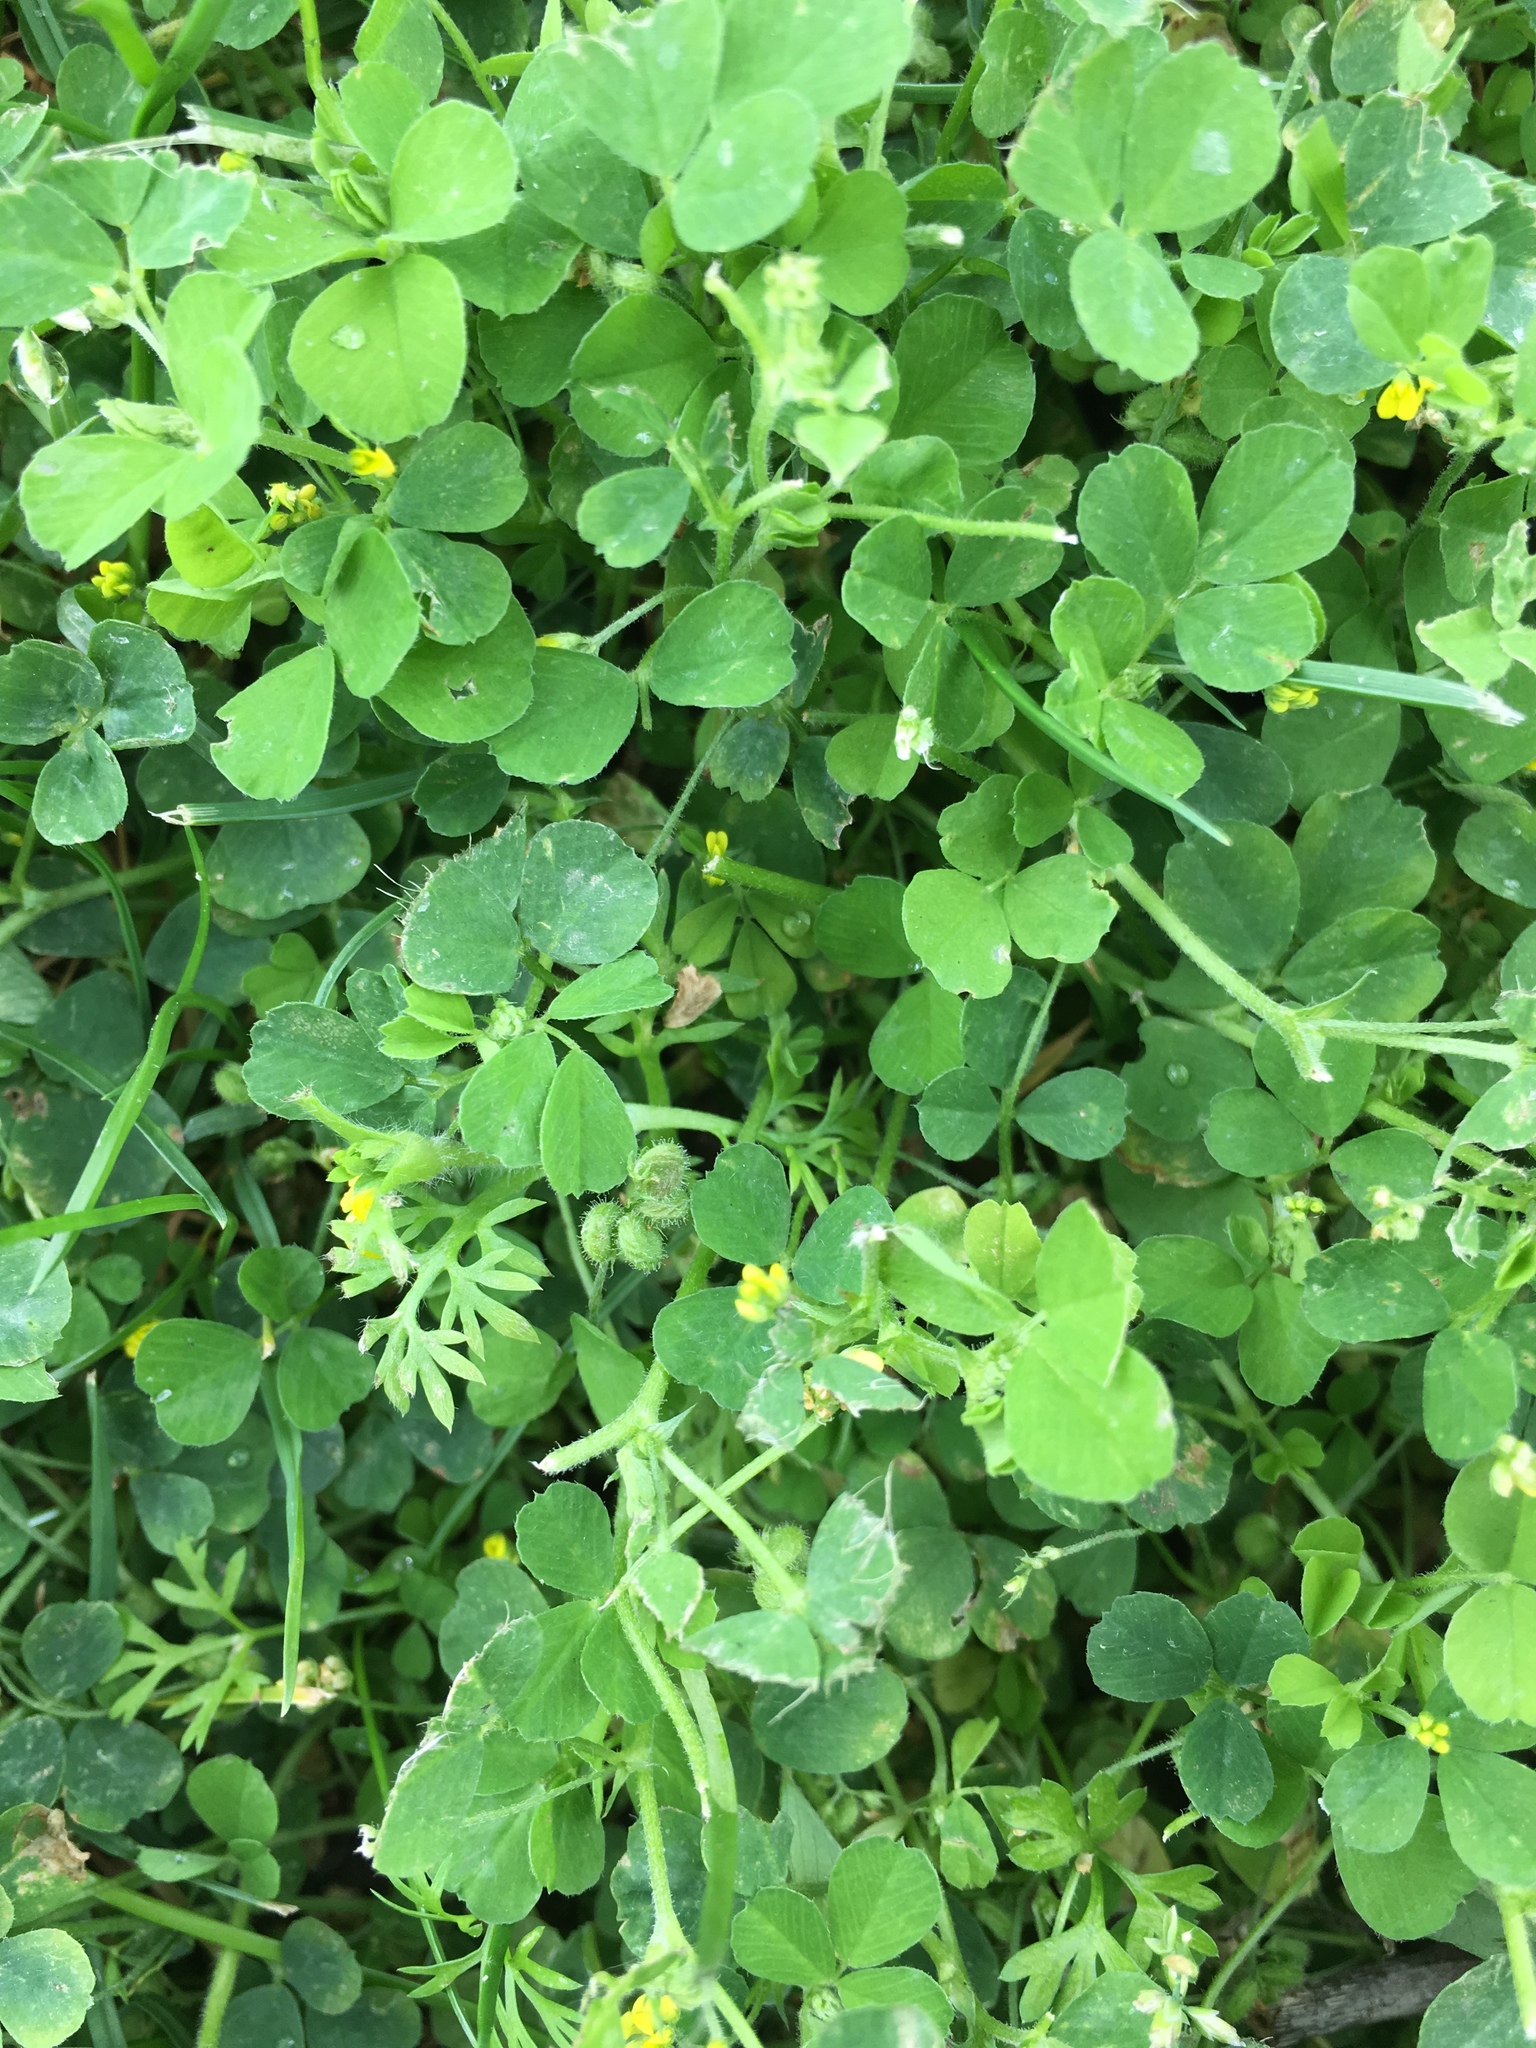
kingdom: Plantae
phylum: Tracheophyta
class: Magnoliopsida
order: Fabales
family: Fabaceae
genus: Medicago
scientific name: Medicago lupulina
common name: Black medick
